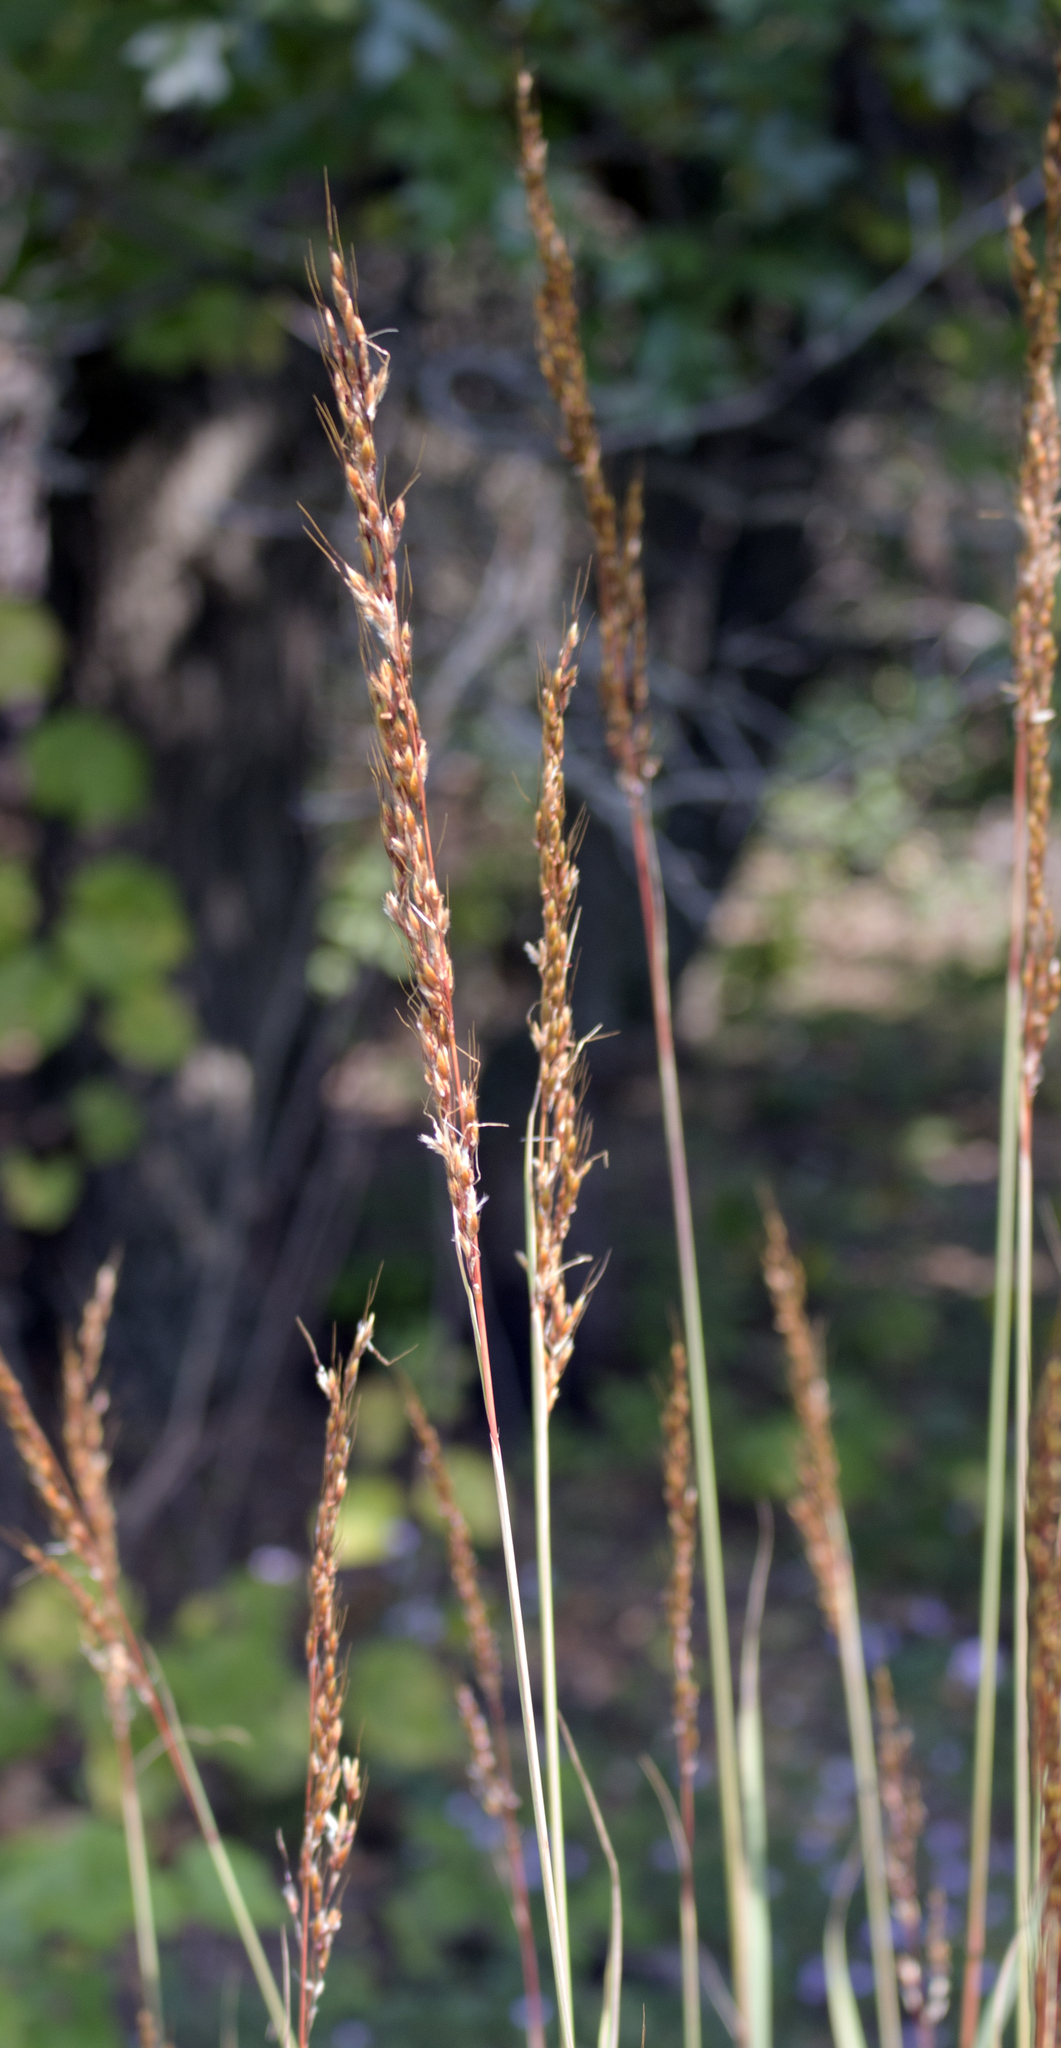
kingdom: Plantae
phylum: Tracheophyta
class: Liliopsida
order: Poales
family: Poaceae
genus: Sorghastrum
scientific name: Sorghastrum nutans
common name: Indian grass
